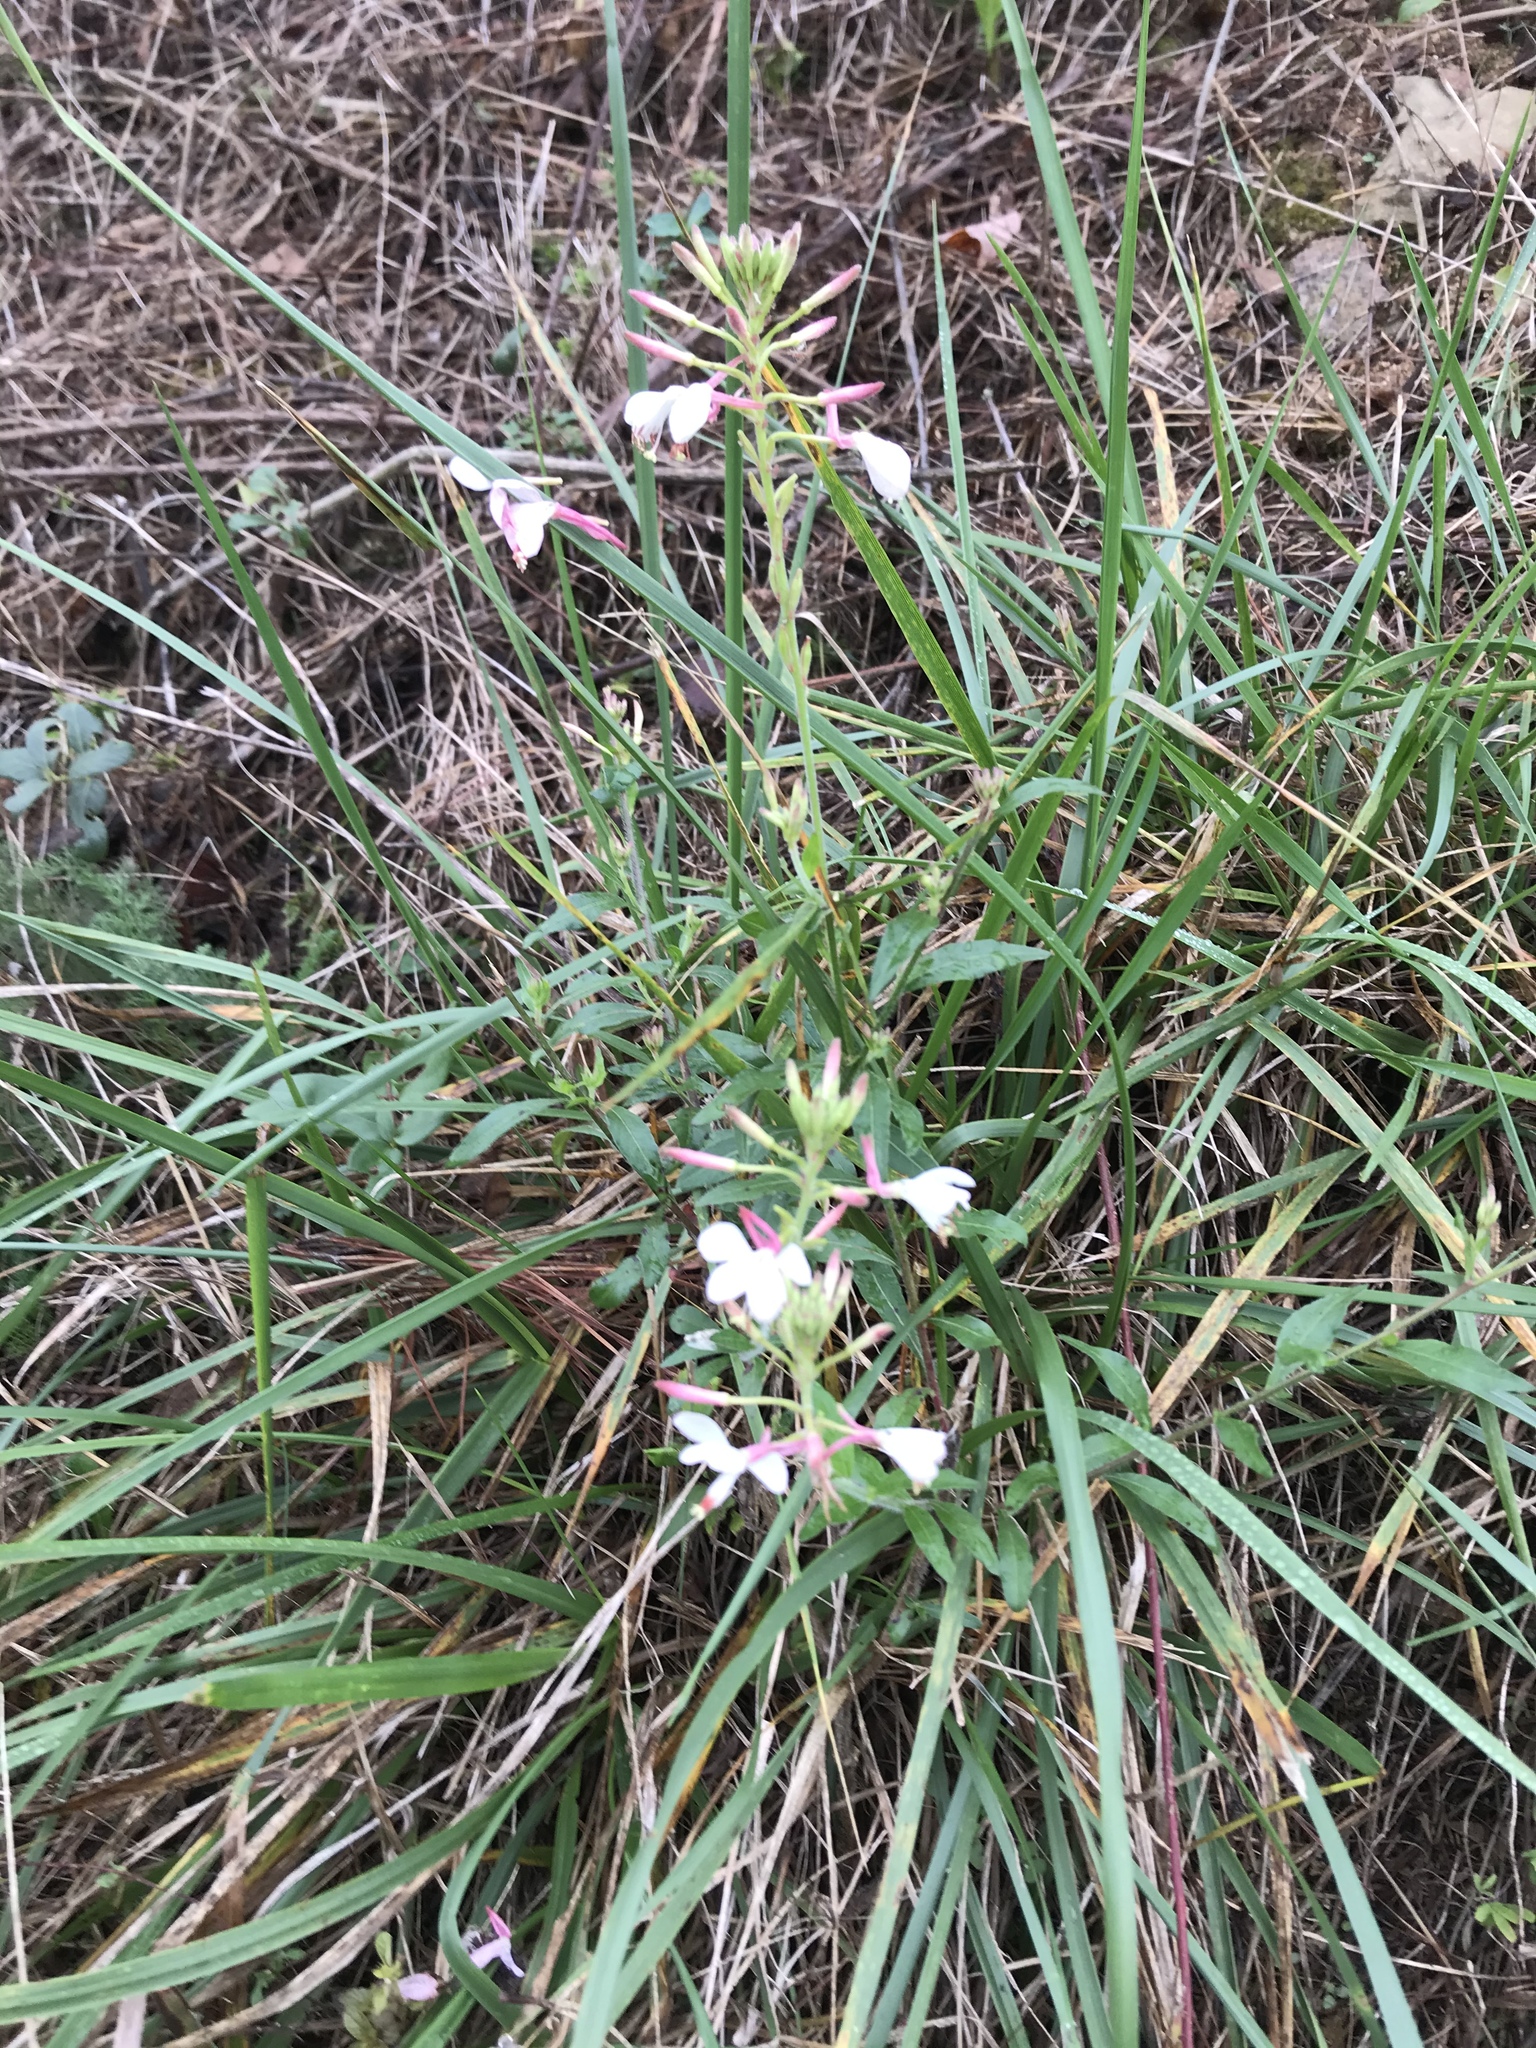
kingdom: Plantae
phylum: Tracheophyta
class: Magnoliopsida
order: Myrtales
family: Onagraceae
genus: Oenothera
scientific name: Oenothera gaura
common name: Biennial beeblossom
